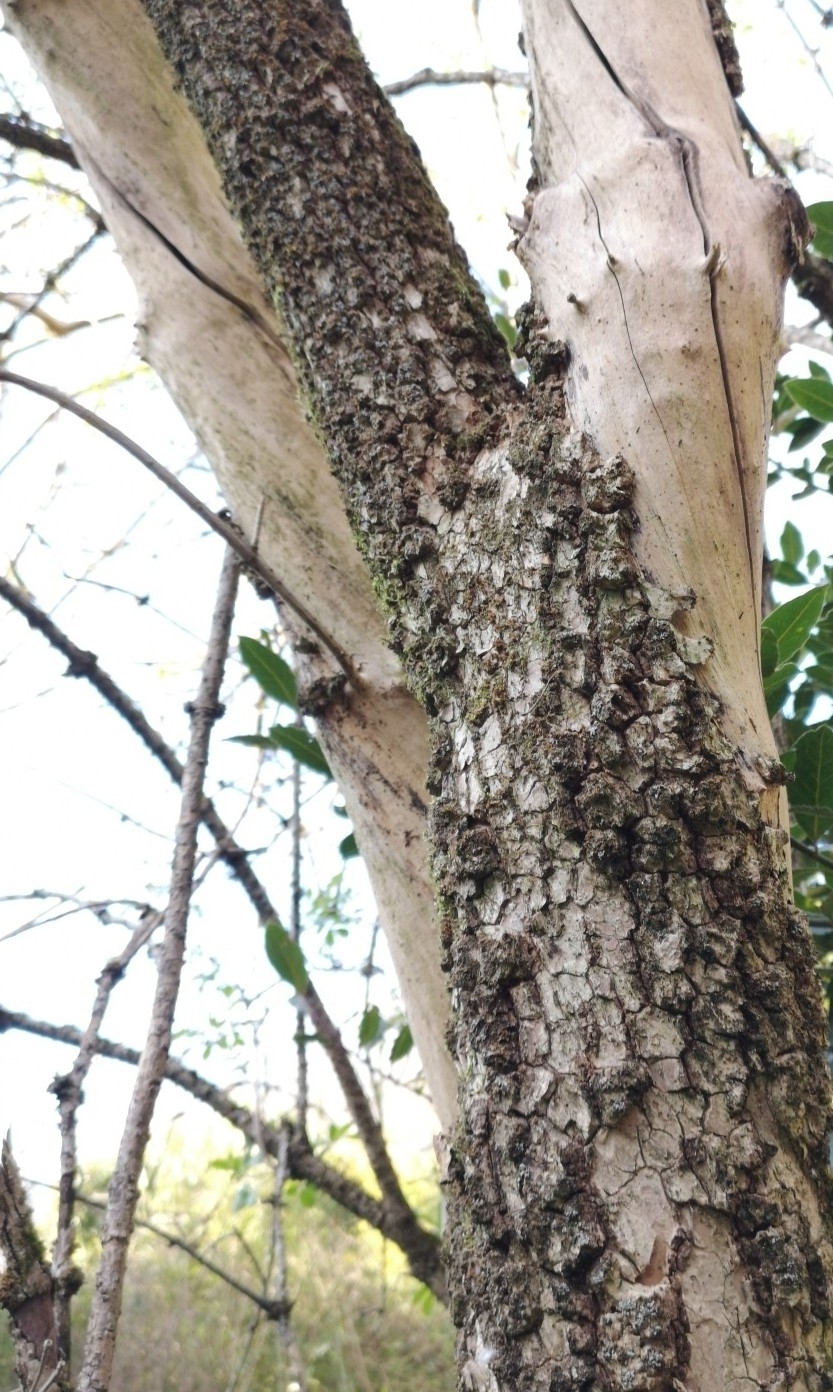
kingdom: Plantae
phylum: Tracheophyta
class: Magnoliopsida
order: Dipsacales
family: Viburnaceae
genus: Sambucus
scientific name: Sambucus nigra
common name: Elder
